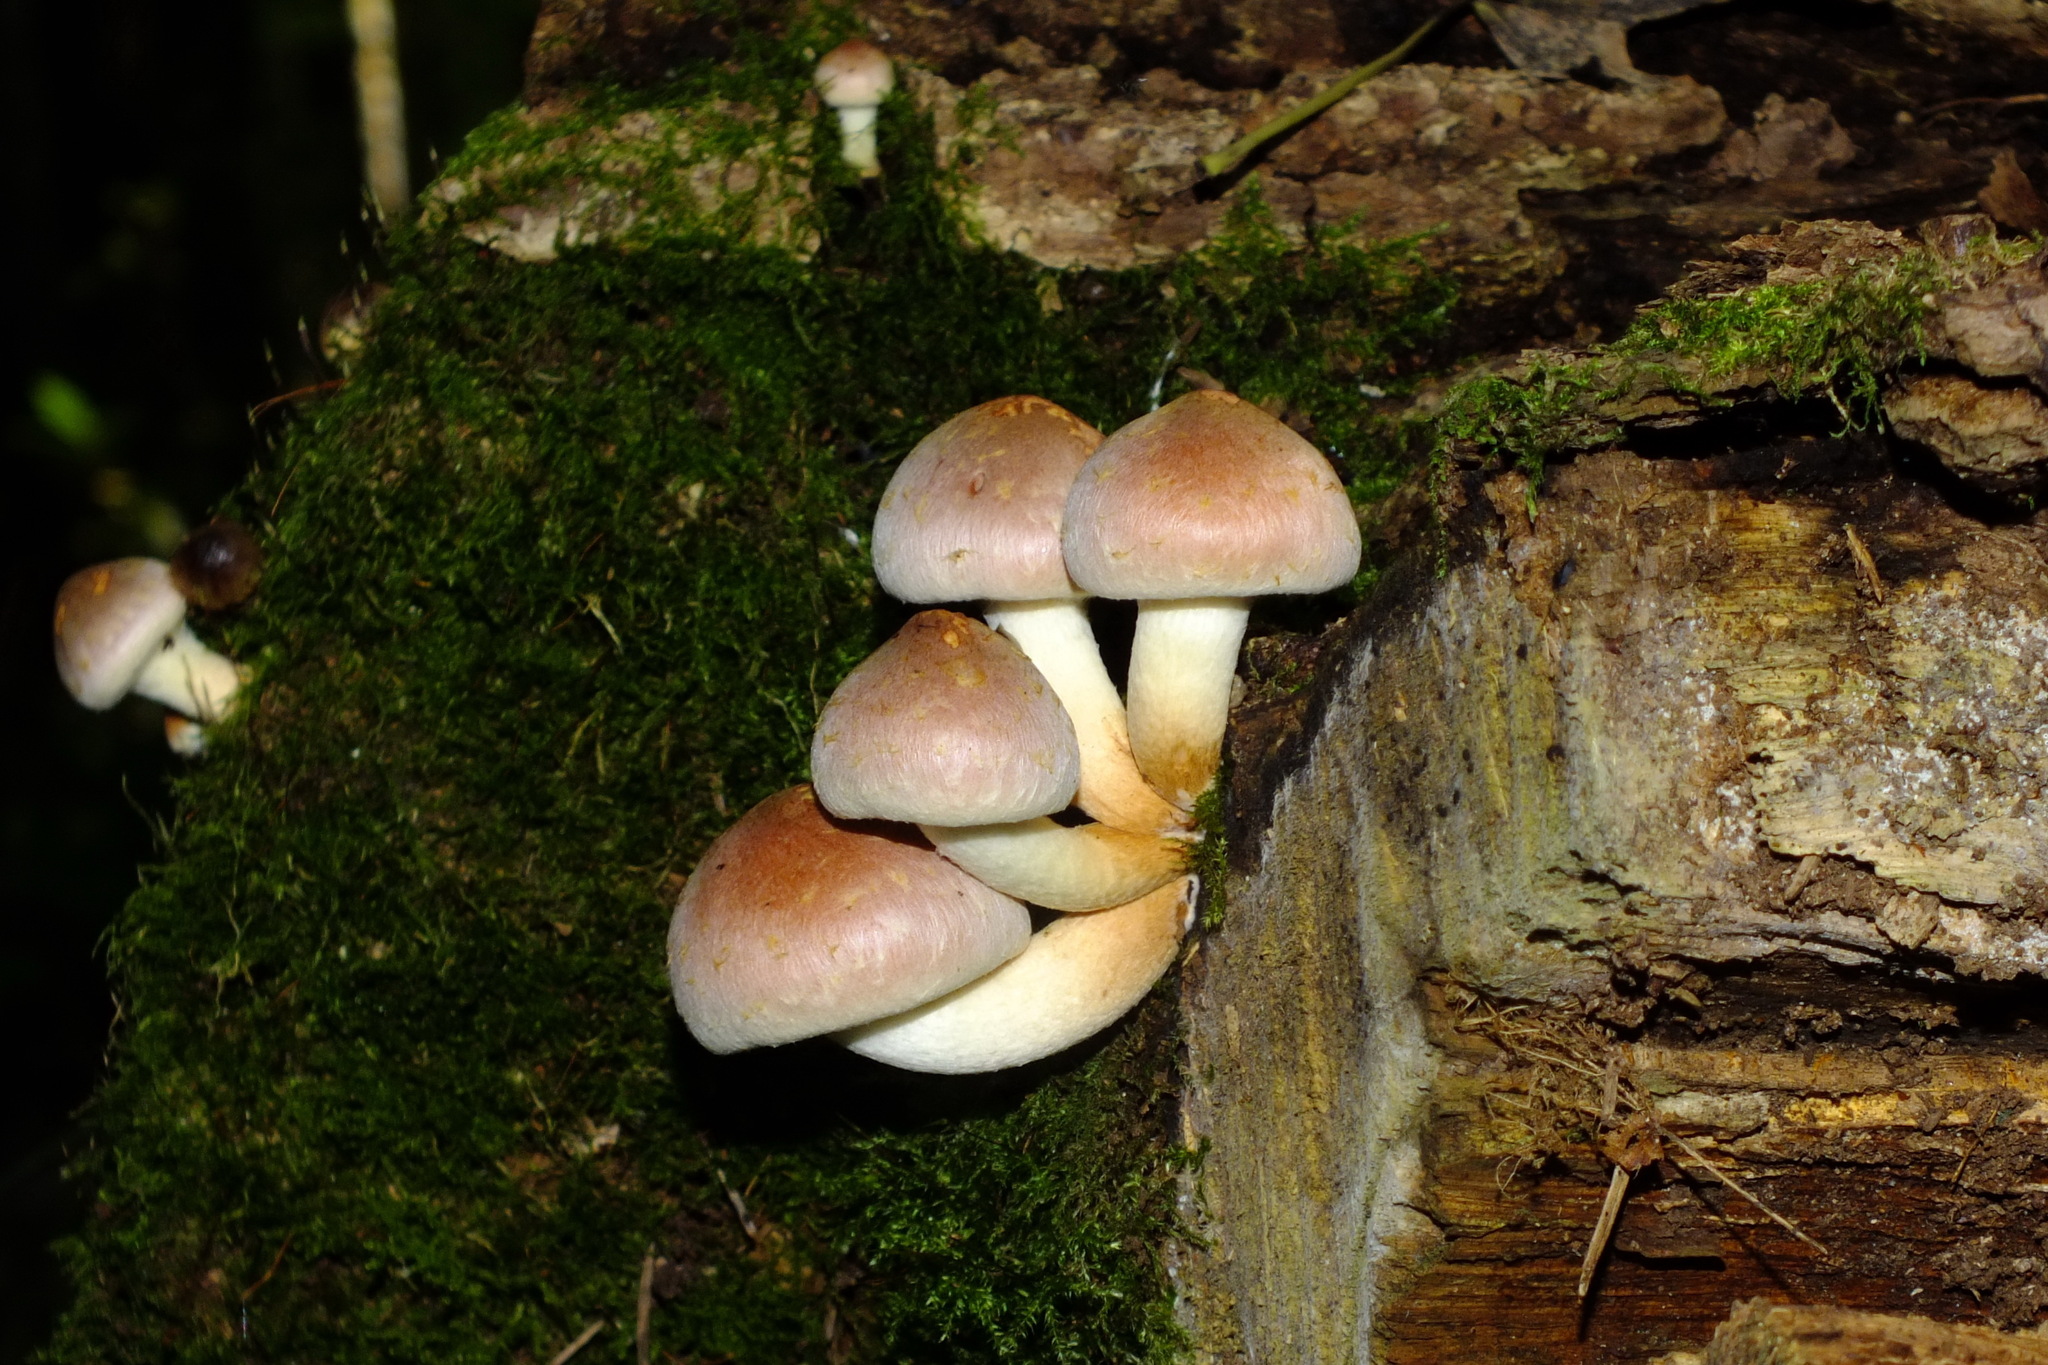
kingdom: Fungi
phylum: Basidiomycota
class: Agaricomycetes
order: Agaricales
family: Strophariaceae
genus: Hypholoma
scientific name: Hypholoma lateritium
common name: Brick caps
